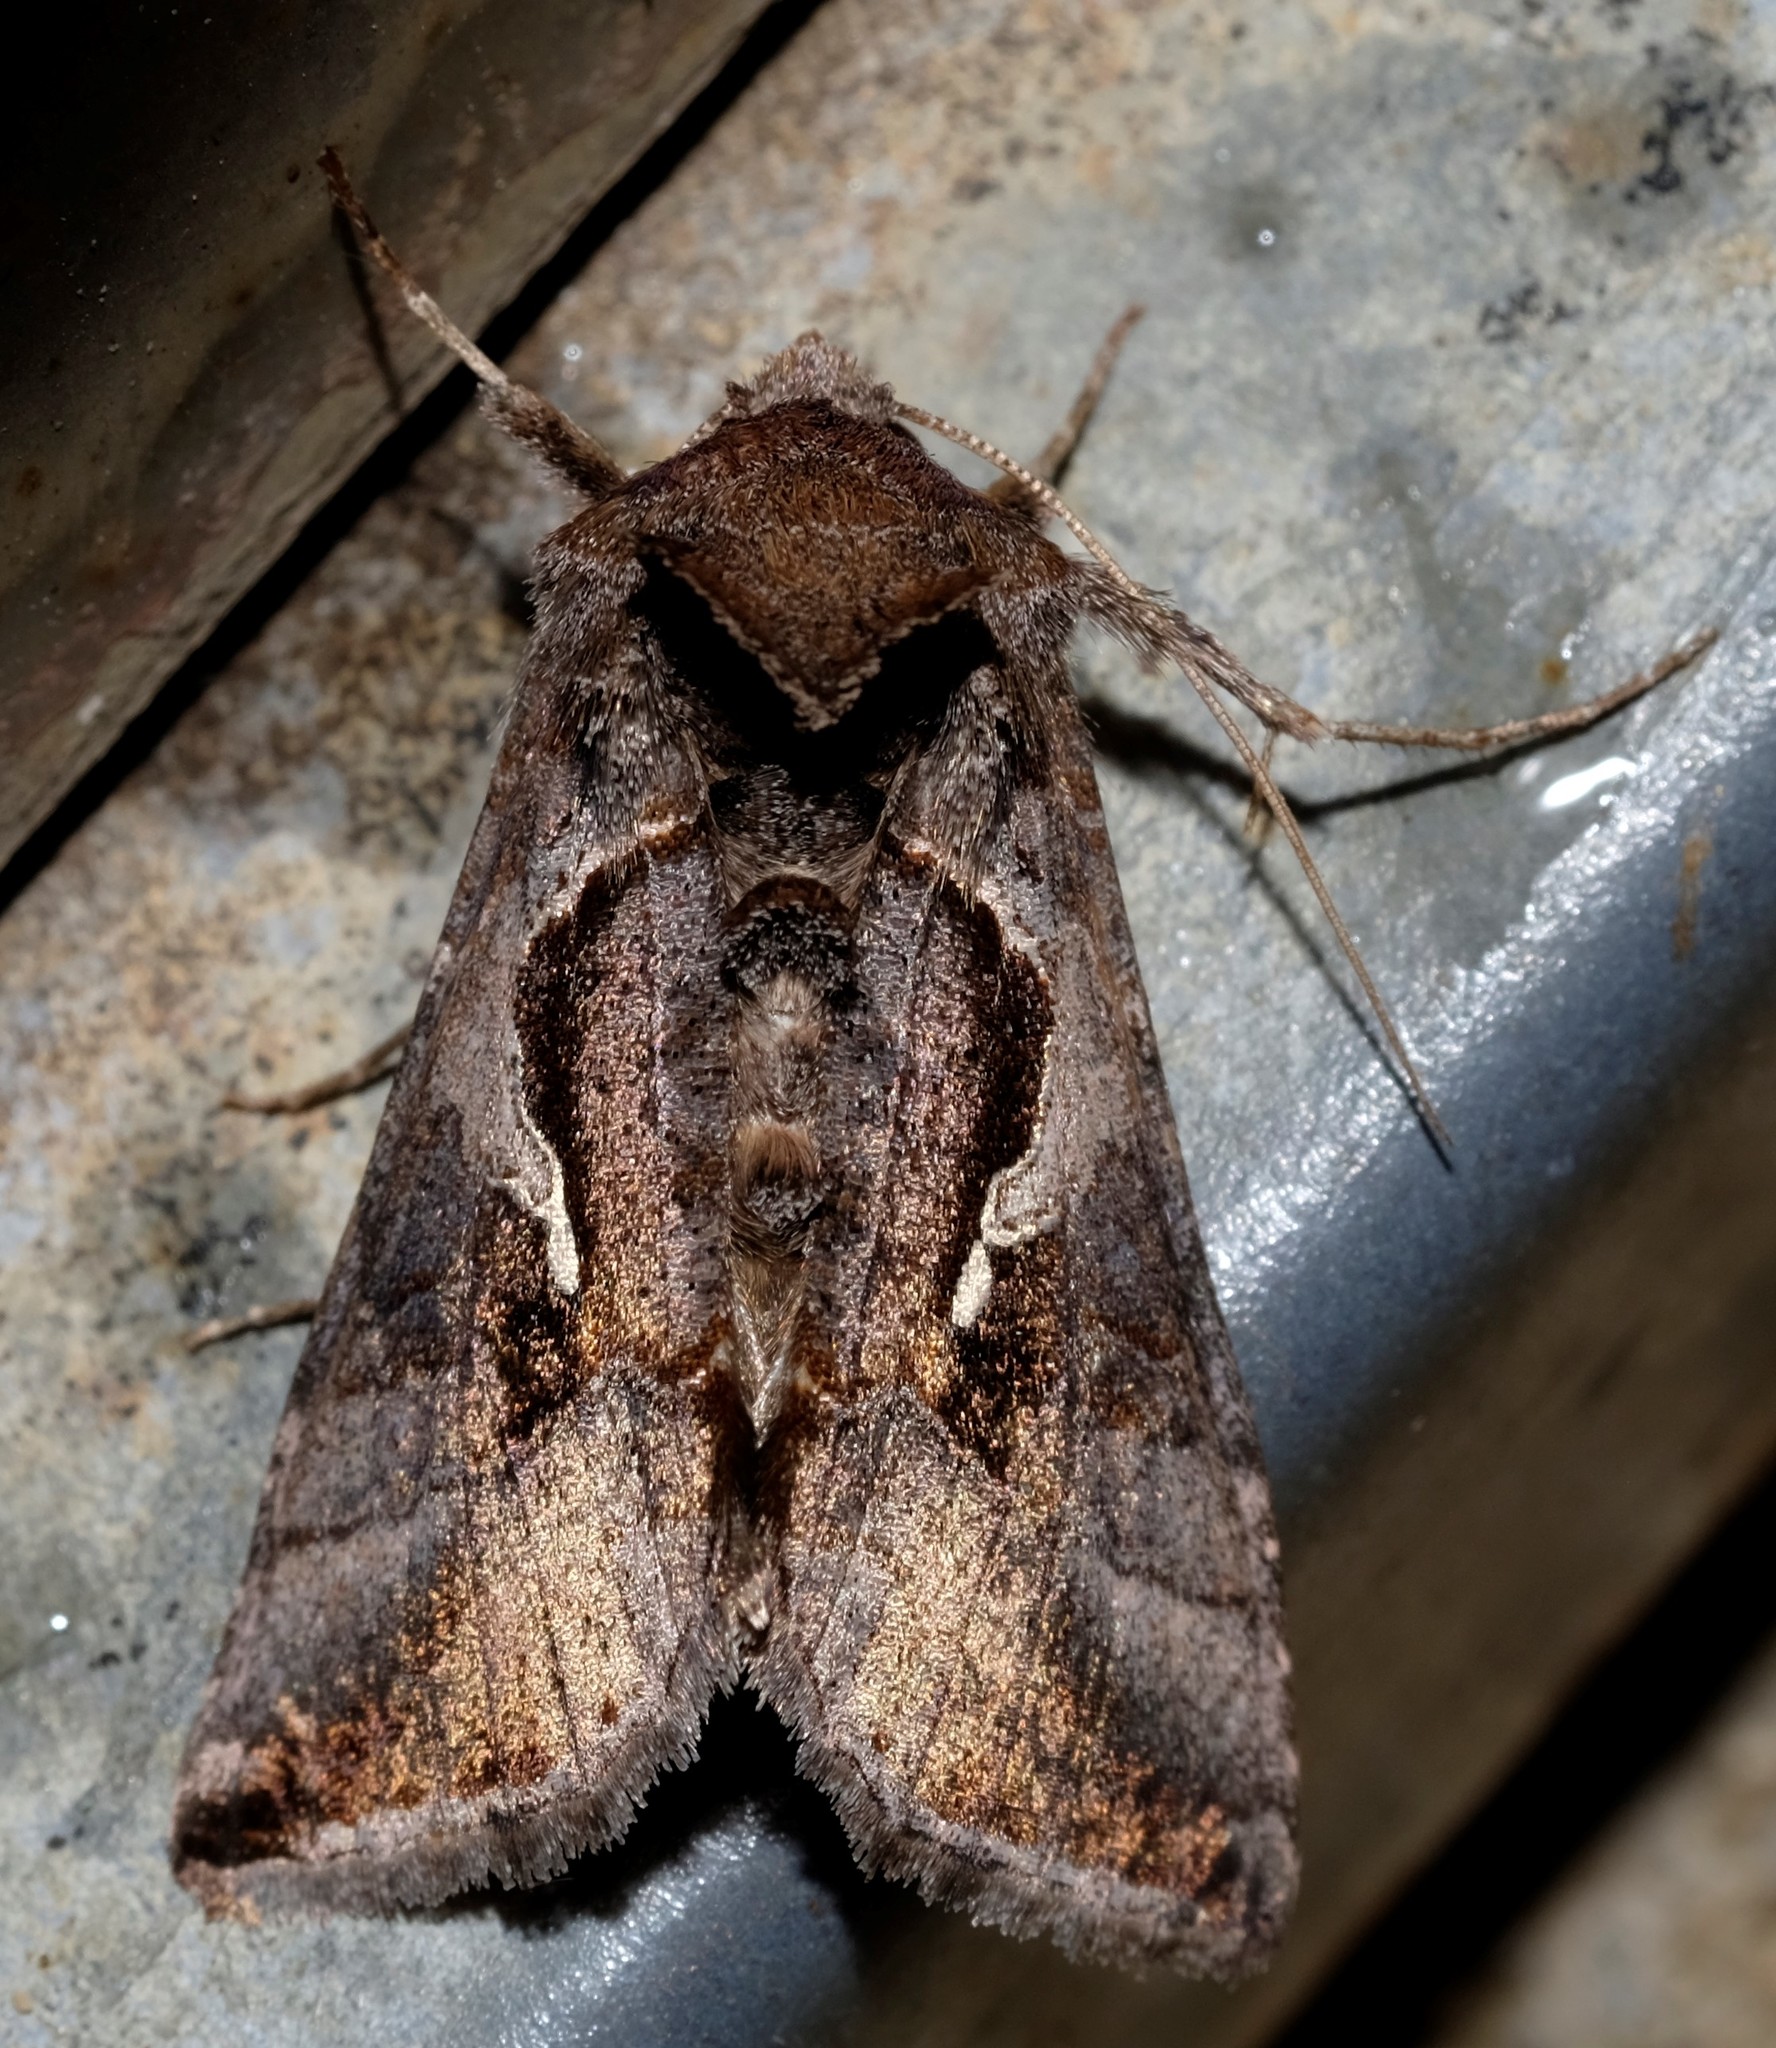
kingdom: Animalia
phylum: Arthropoda
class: Insecta
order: Lepidoptera
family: Noctuidae
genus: Chrysodeixis
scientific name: Chrysodeixis eriosoma
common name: Green garden looper
